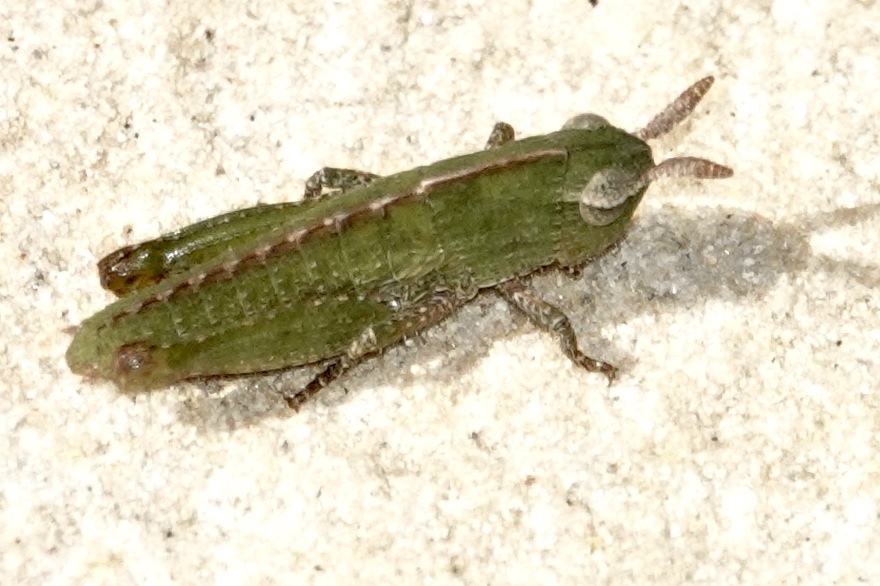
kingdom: Animalia
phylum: Arthropoda
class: Insecta
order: Orthoptera
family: Acrididae
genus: Chortophaga
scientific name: Chortophaga viridifasciata
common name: Green-striped grasshopper
